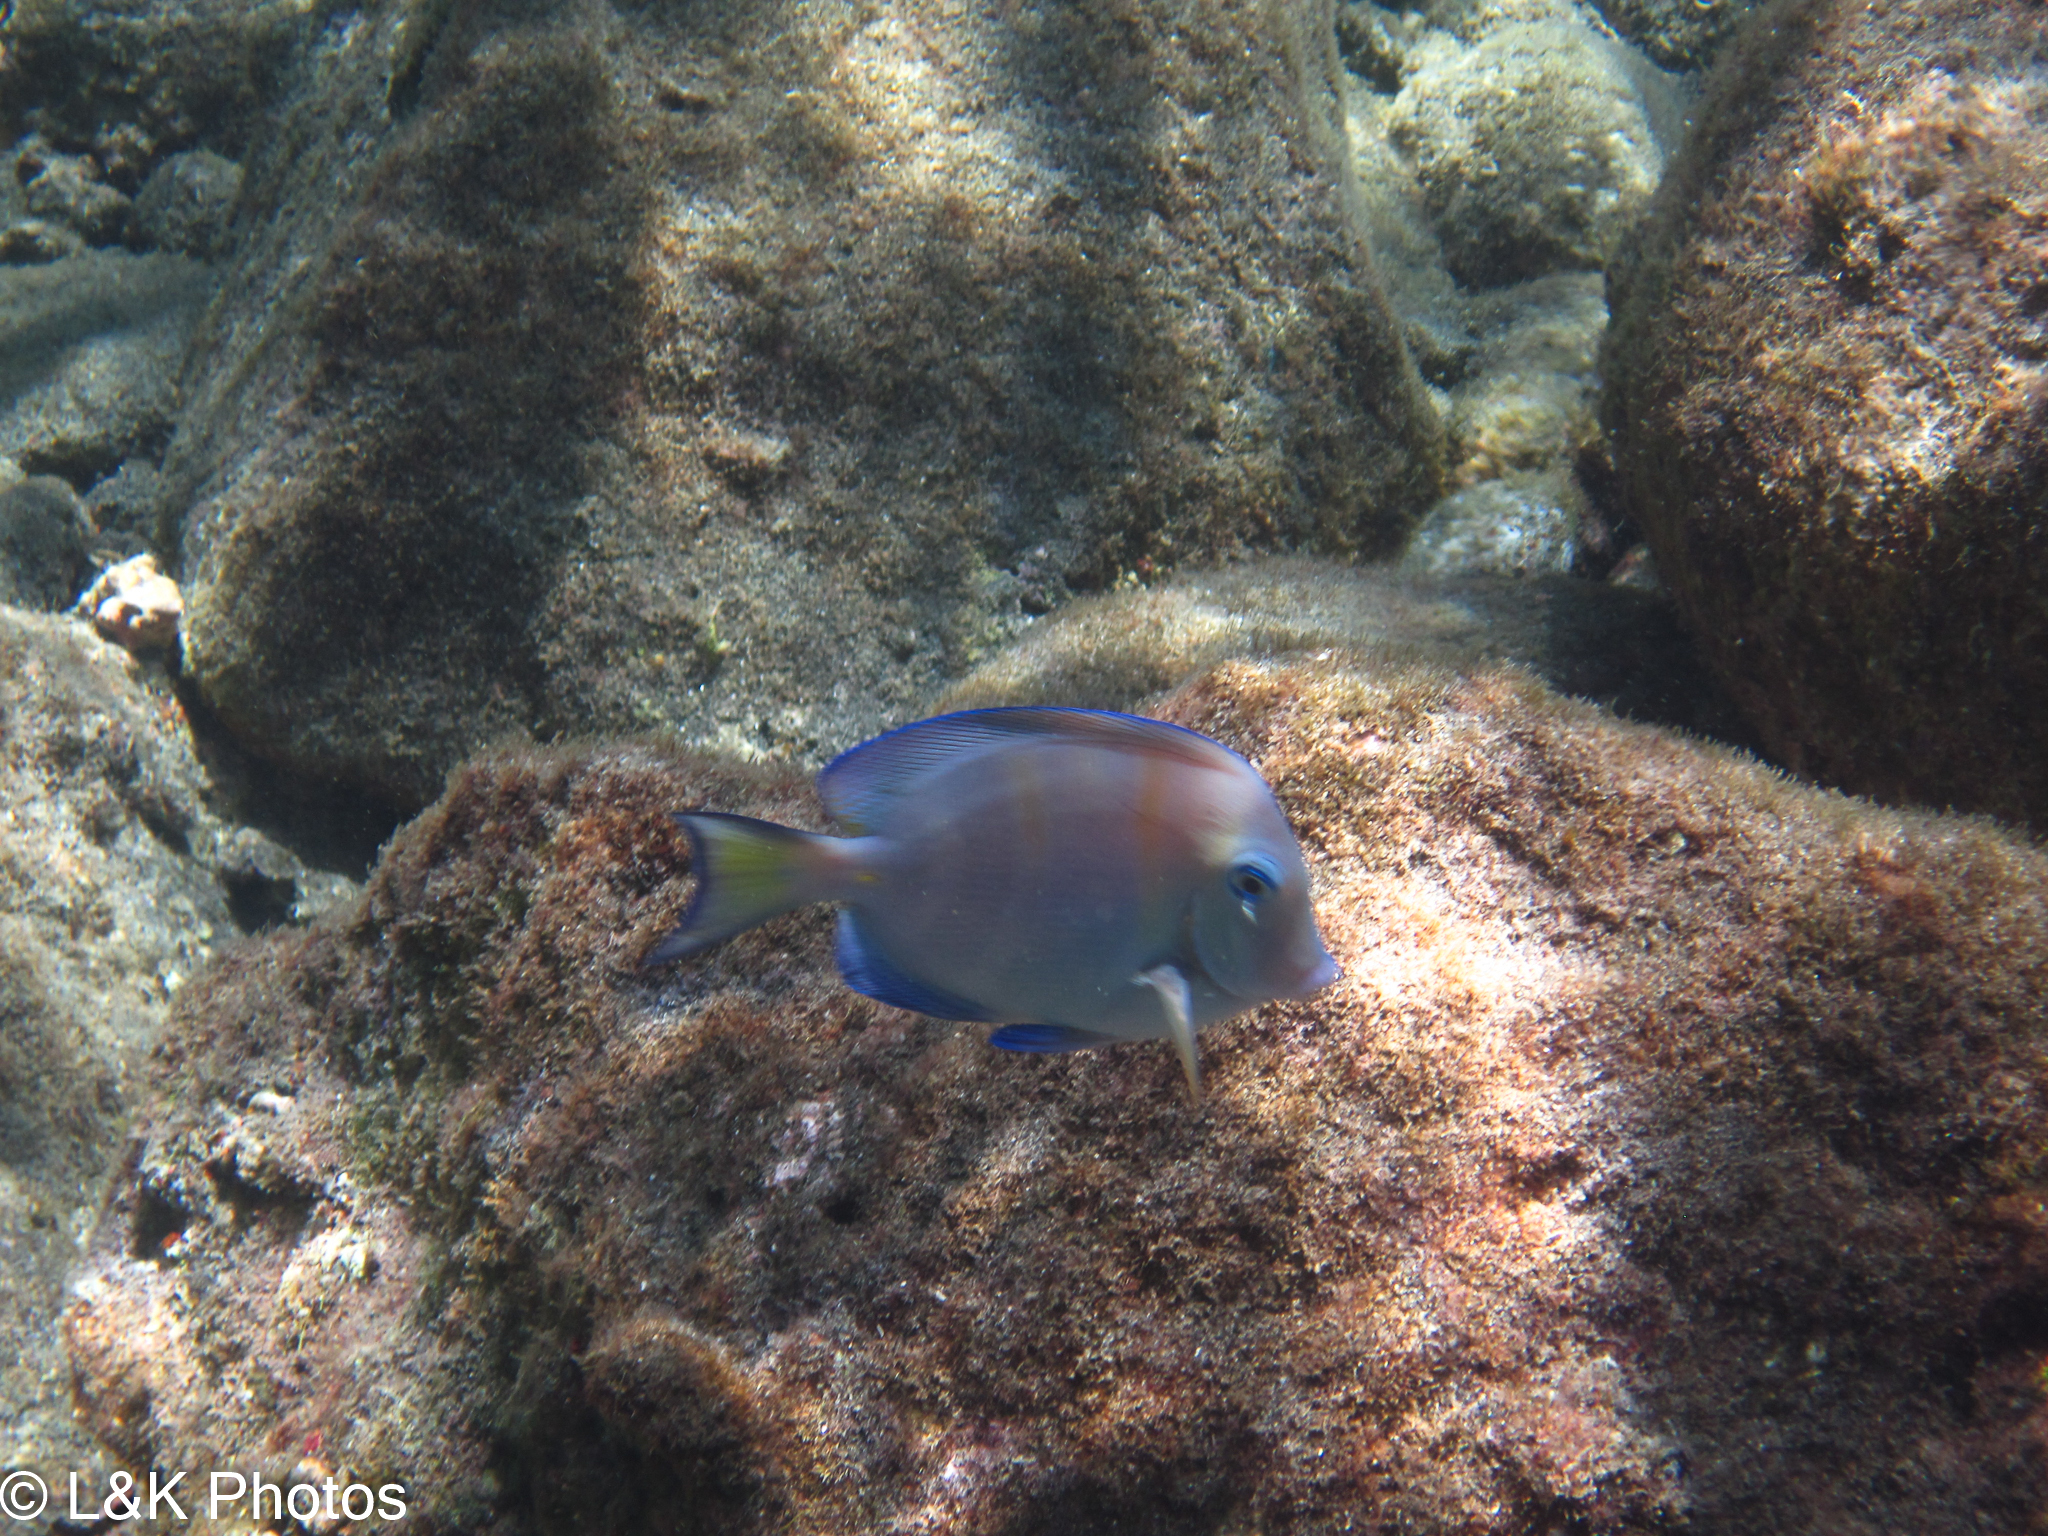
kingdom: Animalia
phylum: Chordata
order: Perciformes
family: Acanthuridae
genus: Acanthurus
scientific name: Acanthurus coeruleus
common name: Blue tang
